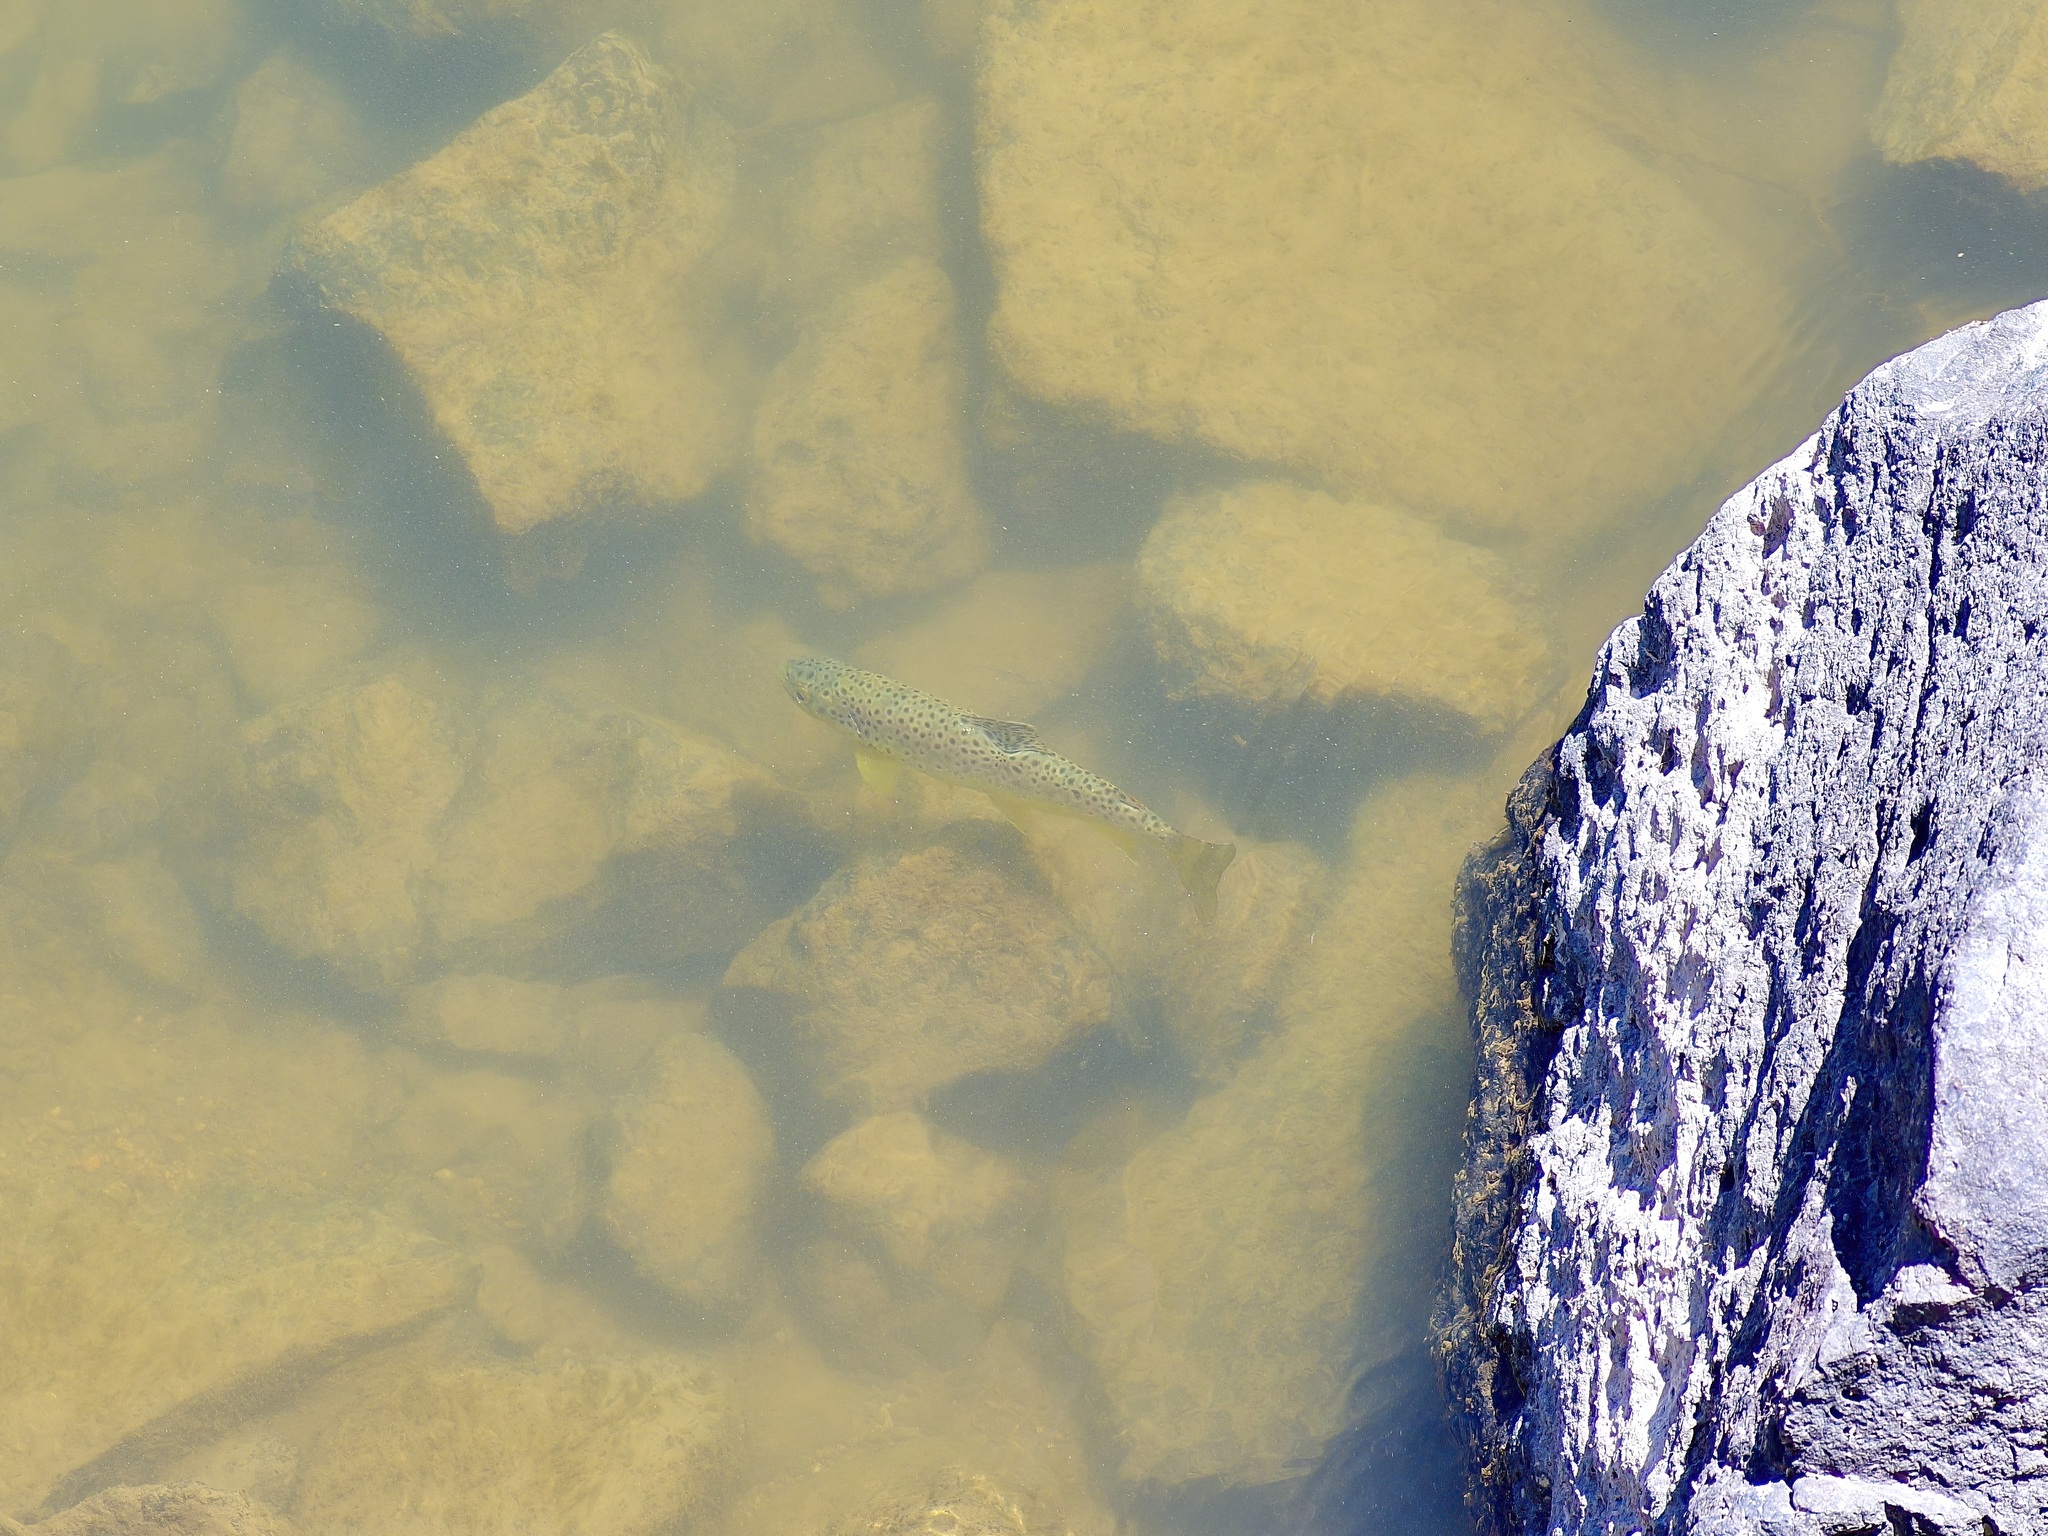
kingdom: Animalia
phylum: Chordata
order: Salmoniformes
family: Salmonidae
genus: Salmo
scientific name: Salmo trutta
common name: Brown trout
